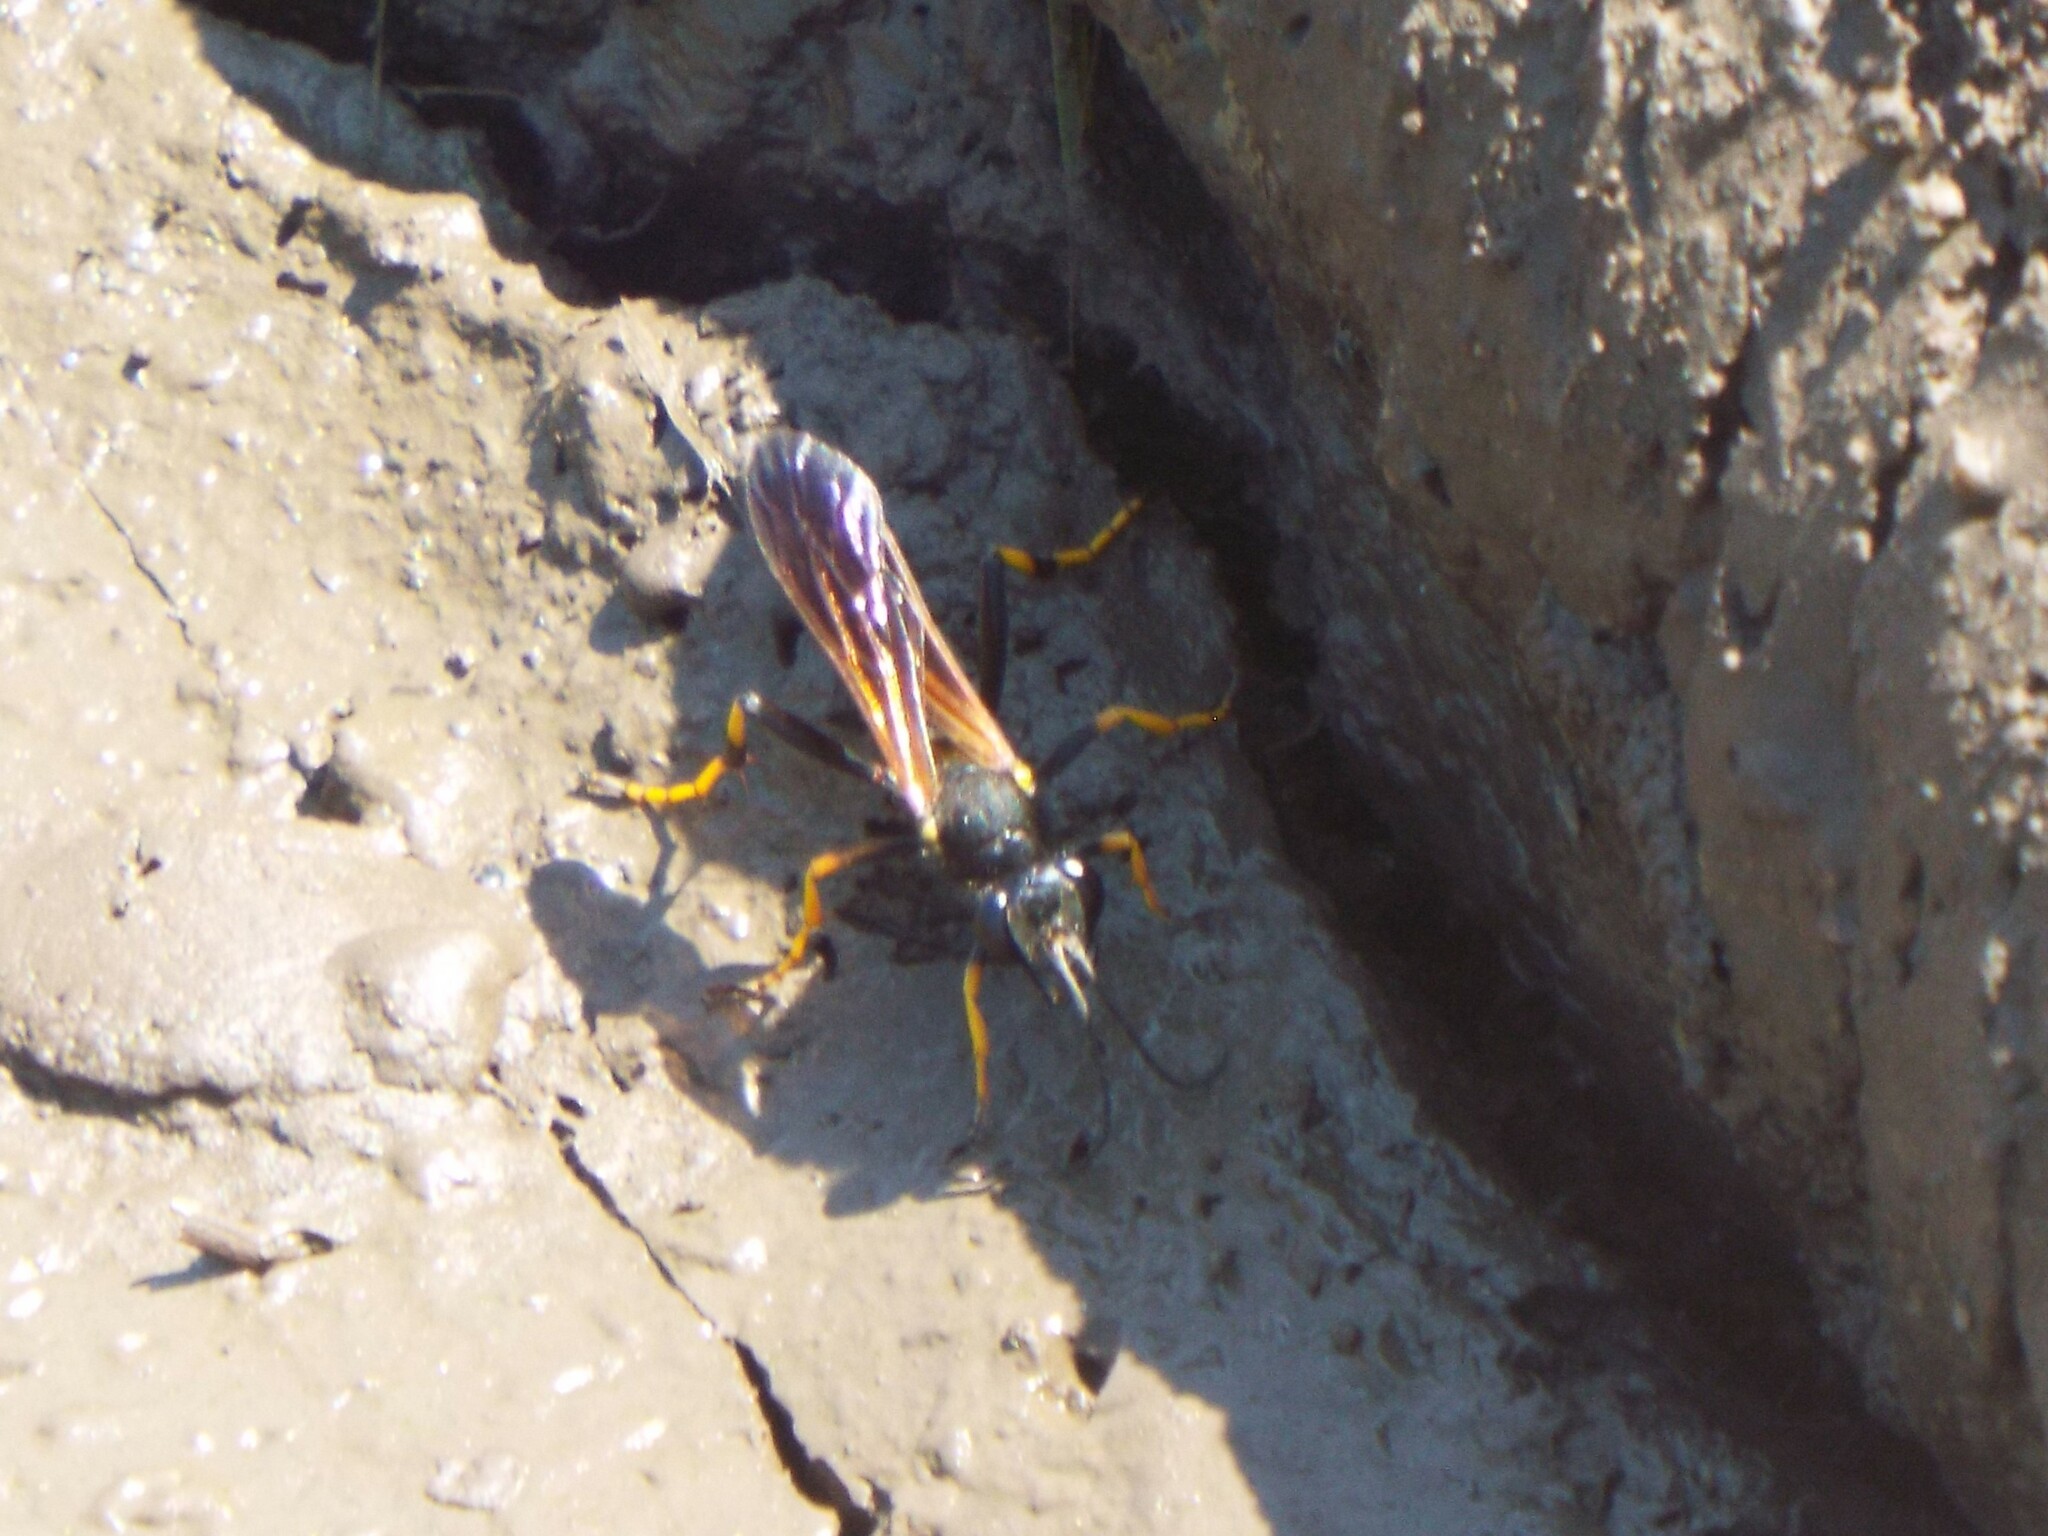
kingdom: Animalia
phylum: Arthropoda
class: Insecta
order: Hymenoptera
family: Sphecidae
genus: Sceliphron
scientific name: Sceliphron caementarium
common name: Mud dauber
